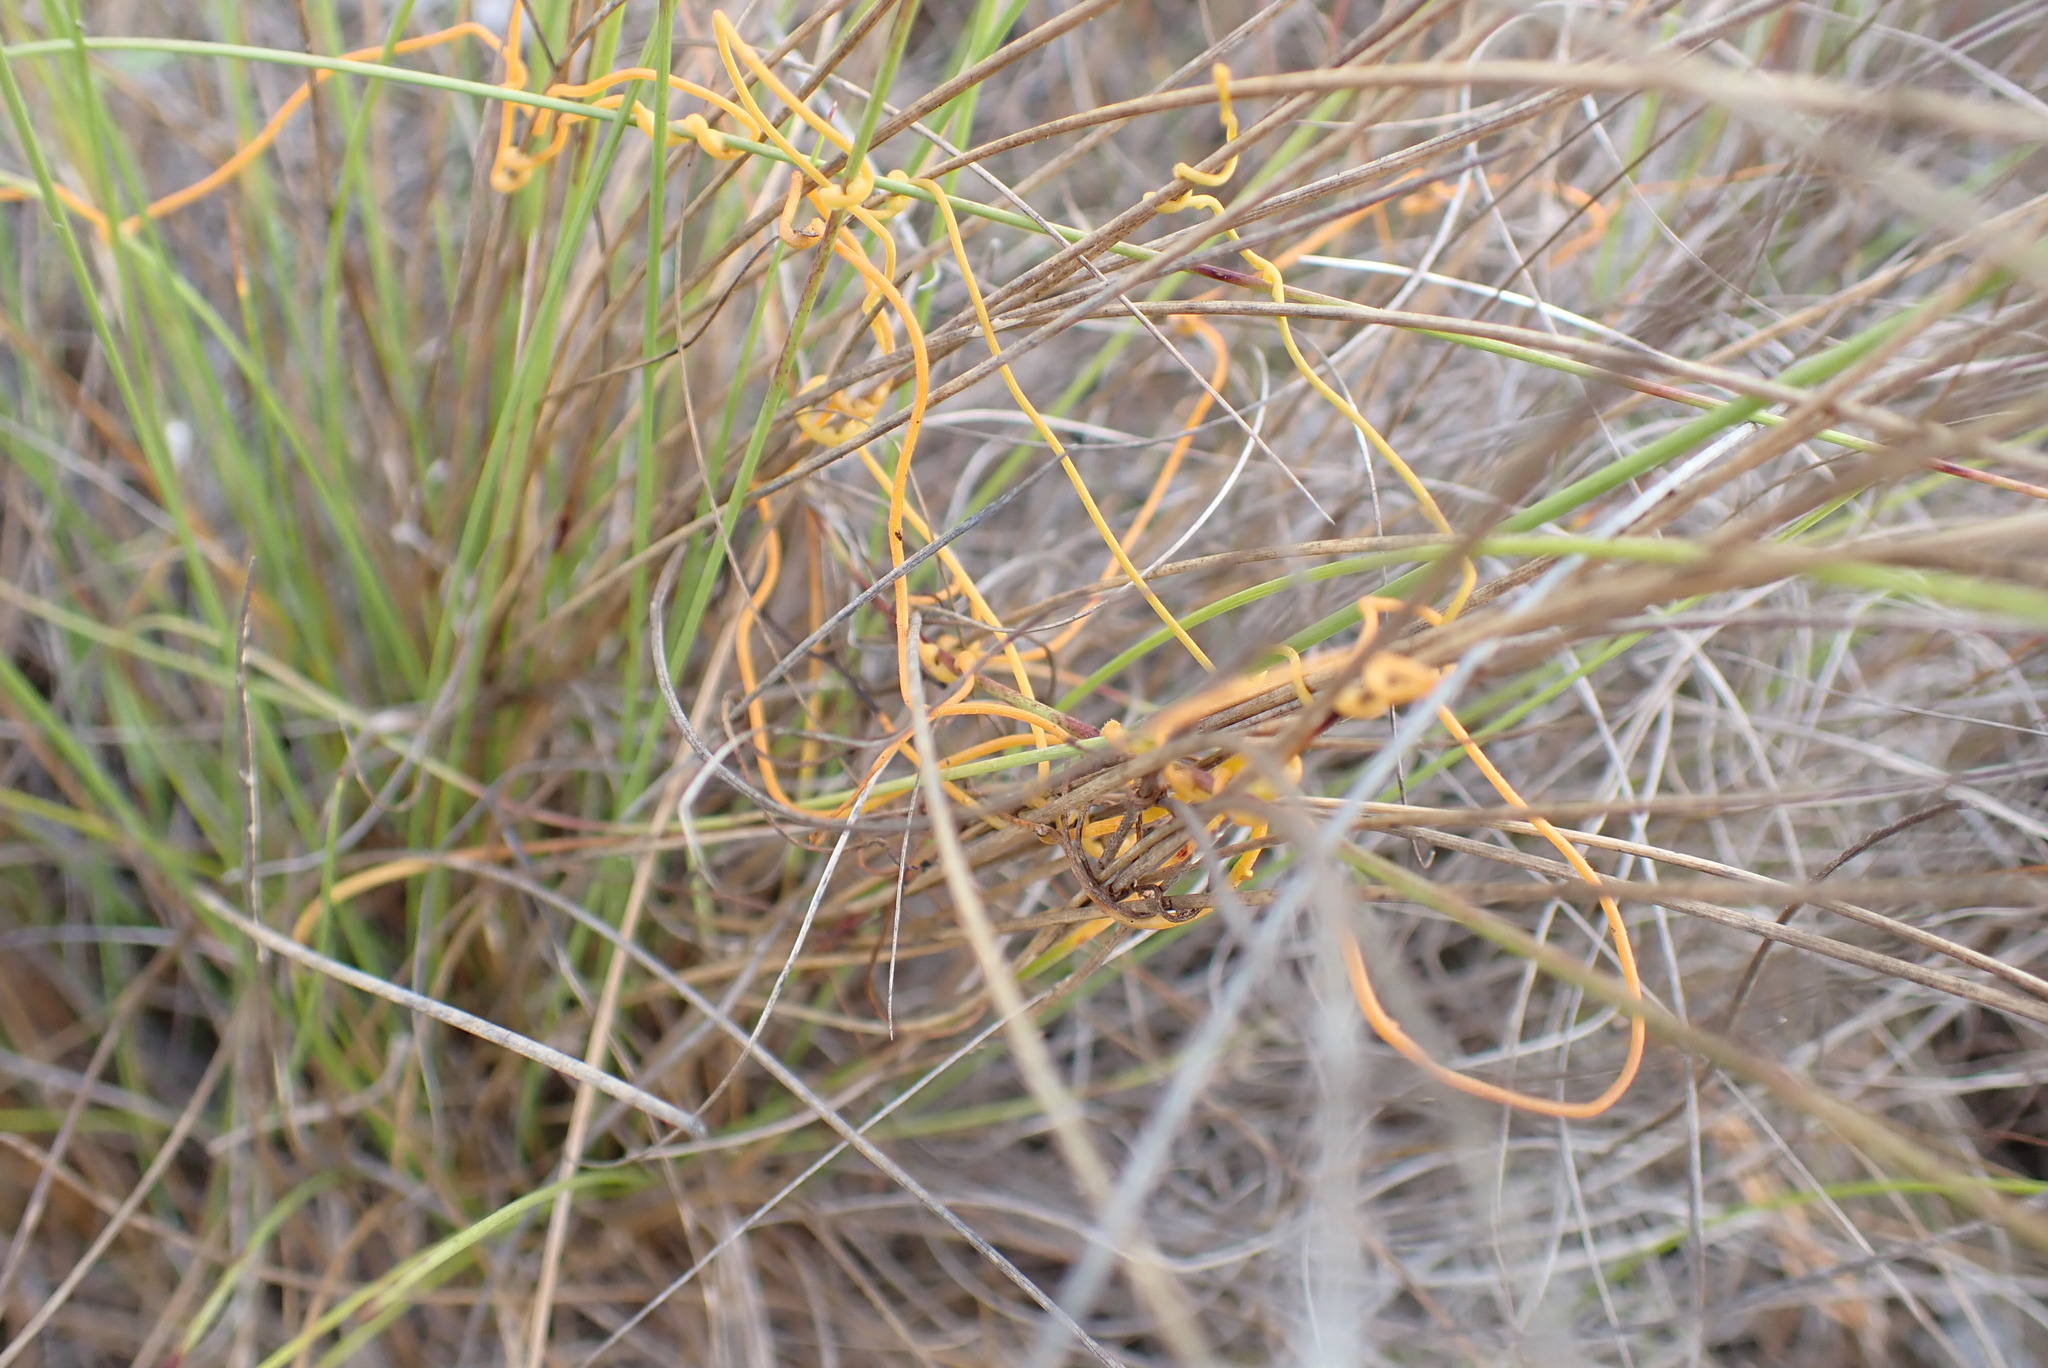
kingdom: Plantae
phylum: Tracheophyta
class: Magnoliopsida
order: Laurales
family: Lauraceae
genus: Cassytha
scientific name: Cassytha filiformis
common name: Dodder-laurel
